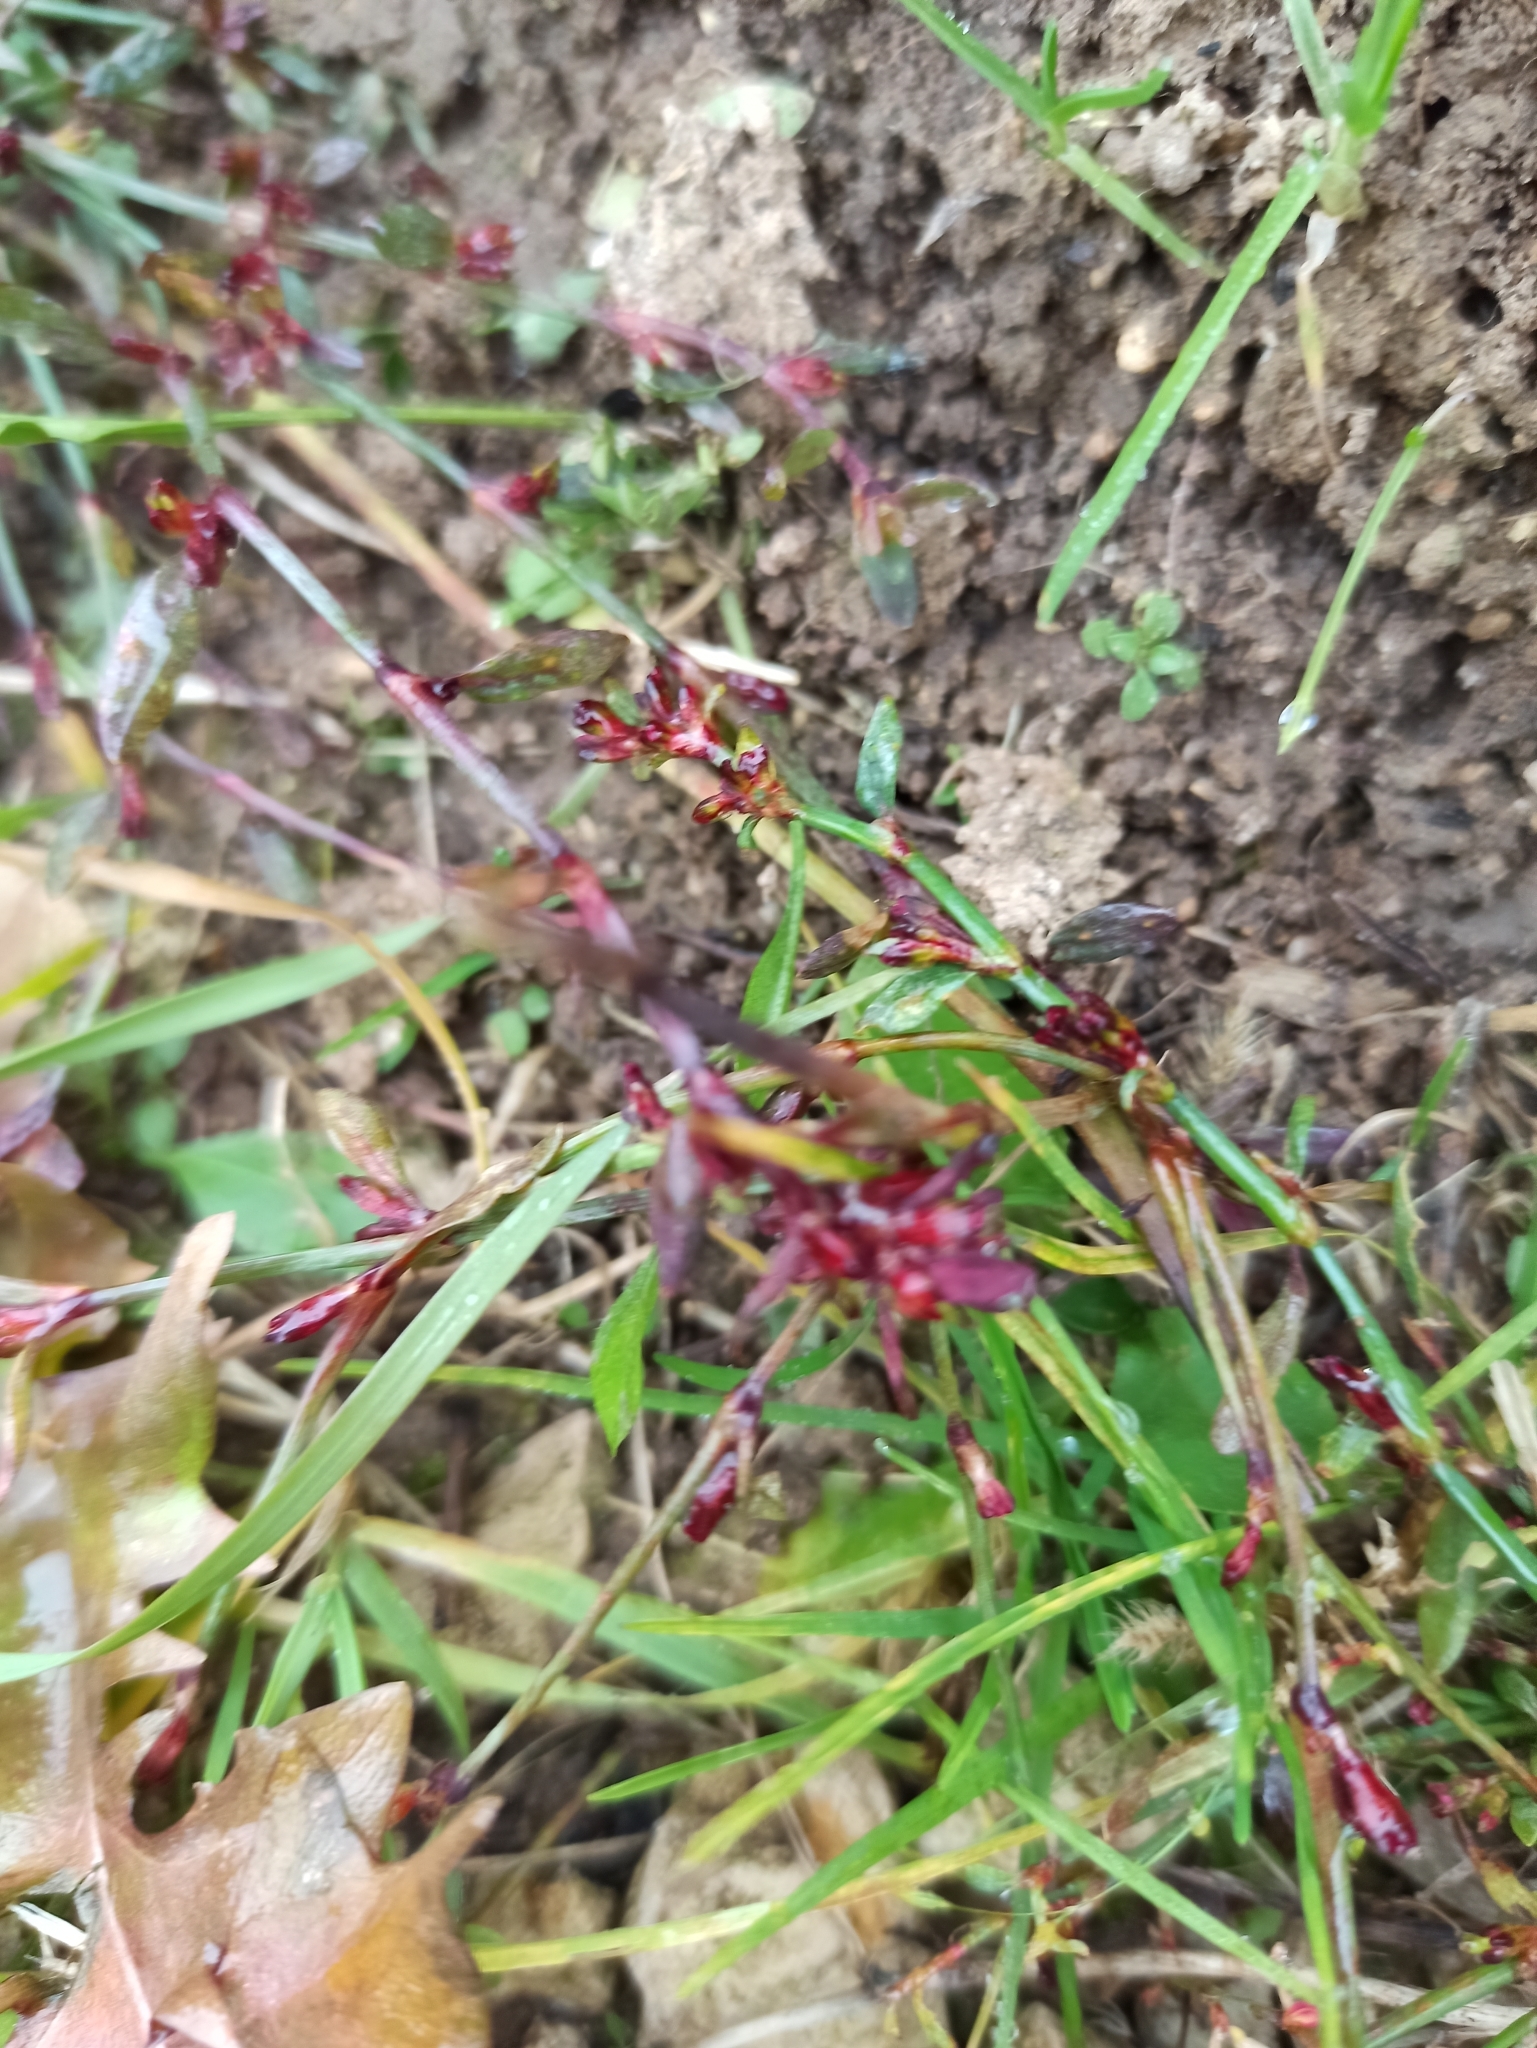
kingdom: Plantae
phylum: Tracheophyta
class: Magnoliopsida
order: Caryophyllales
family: Polygonaceae
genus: Polygonum
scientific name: Polygonum
